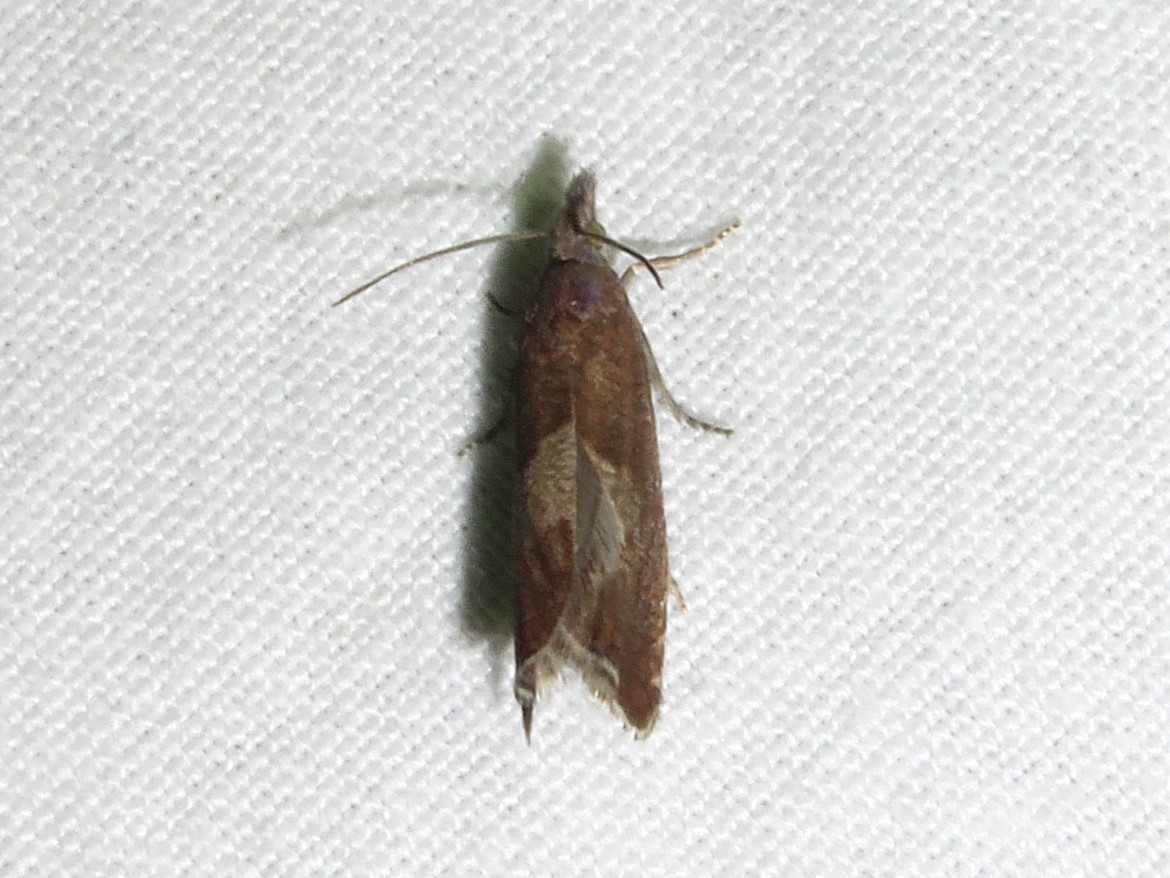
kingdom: Animalia
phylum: Arthropoda
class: Insecta
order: Lepidoptera
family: Tortricidae
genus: Dichrorampha
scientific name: Dichrorampha acuminatana
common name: Sharp-winged drill
